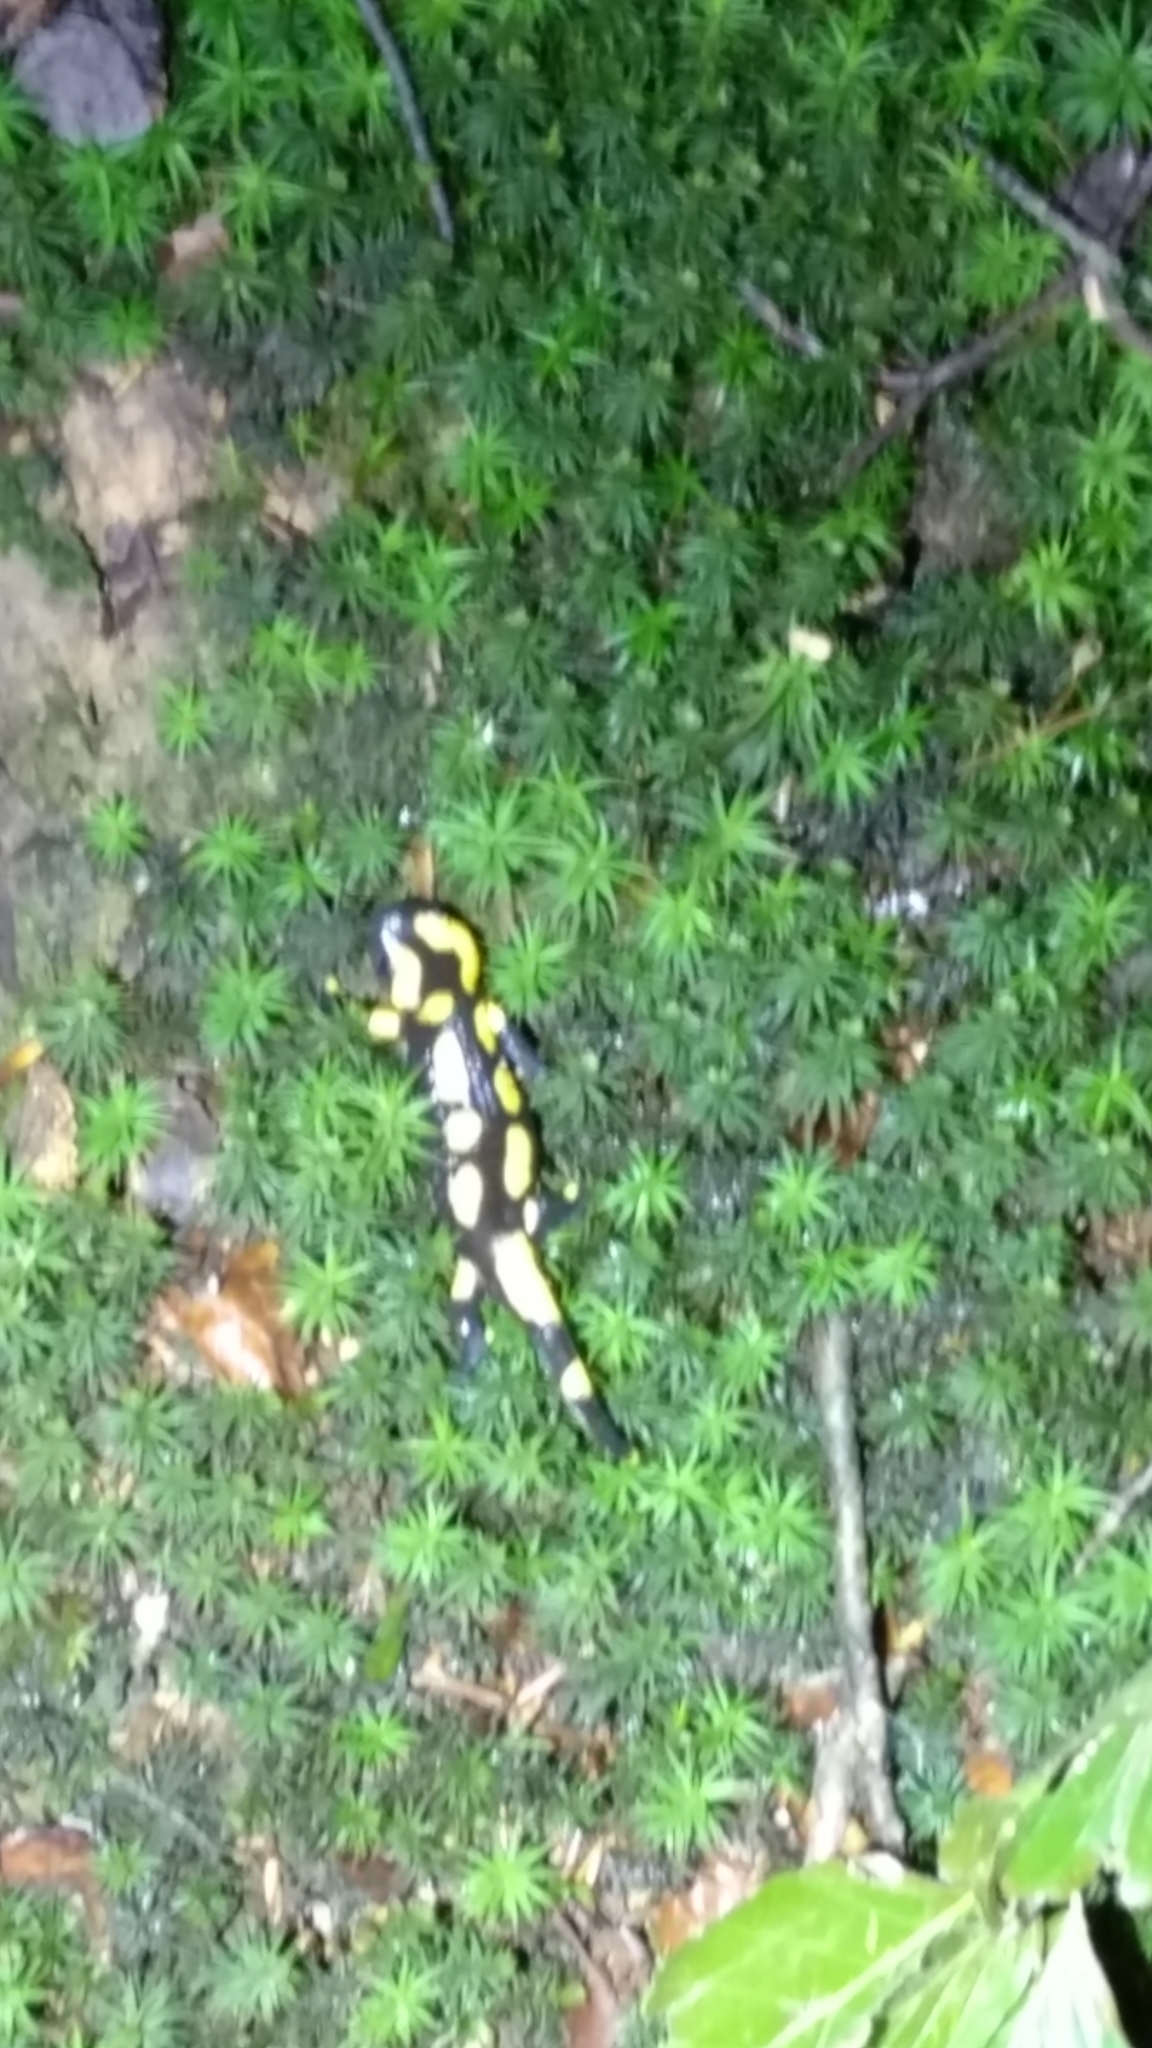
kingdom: Animalia
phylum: Chordata
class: Amphibia
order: Caudata
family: Salamandridae
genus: Salamandra
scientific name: Salamandra salamandra
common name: Fire salamander
